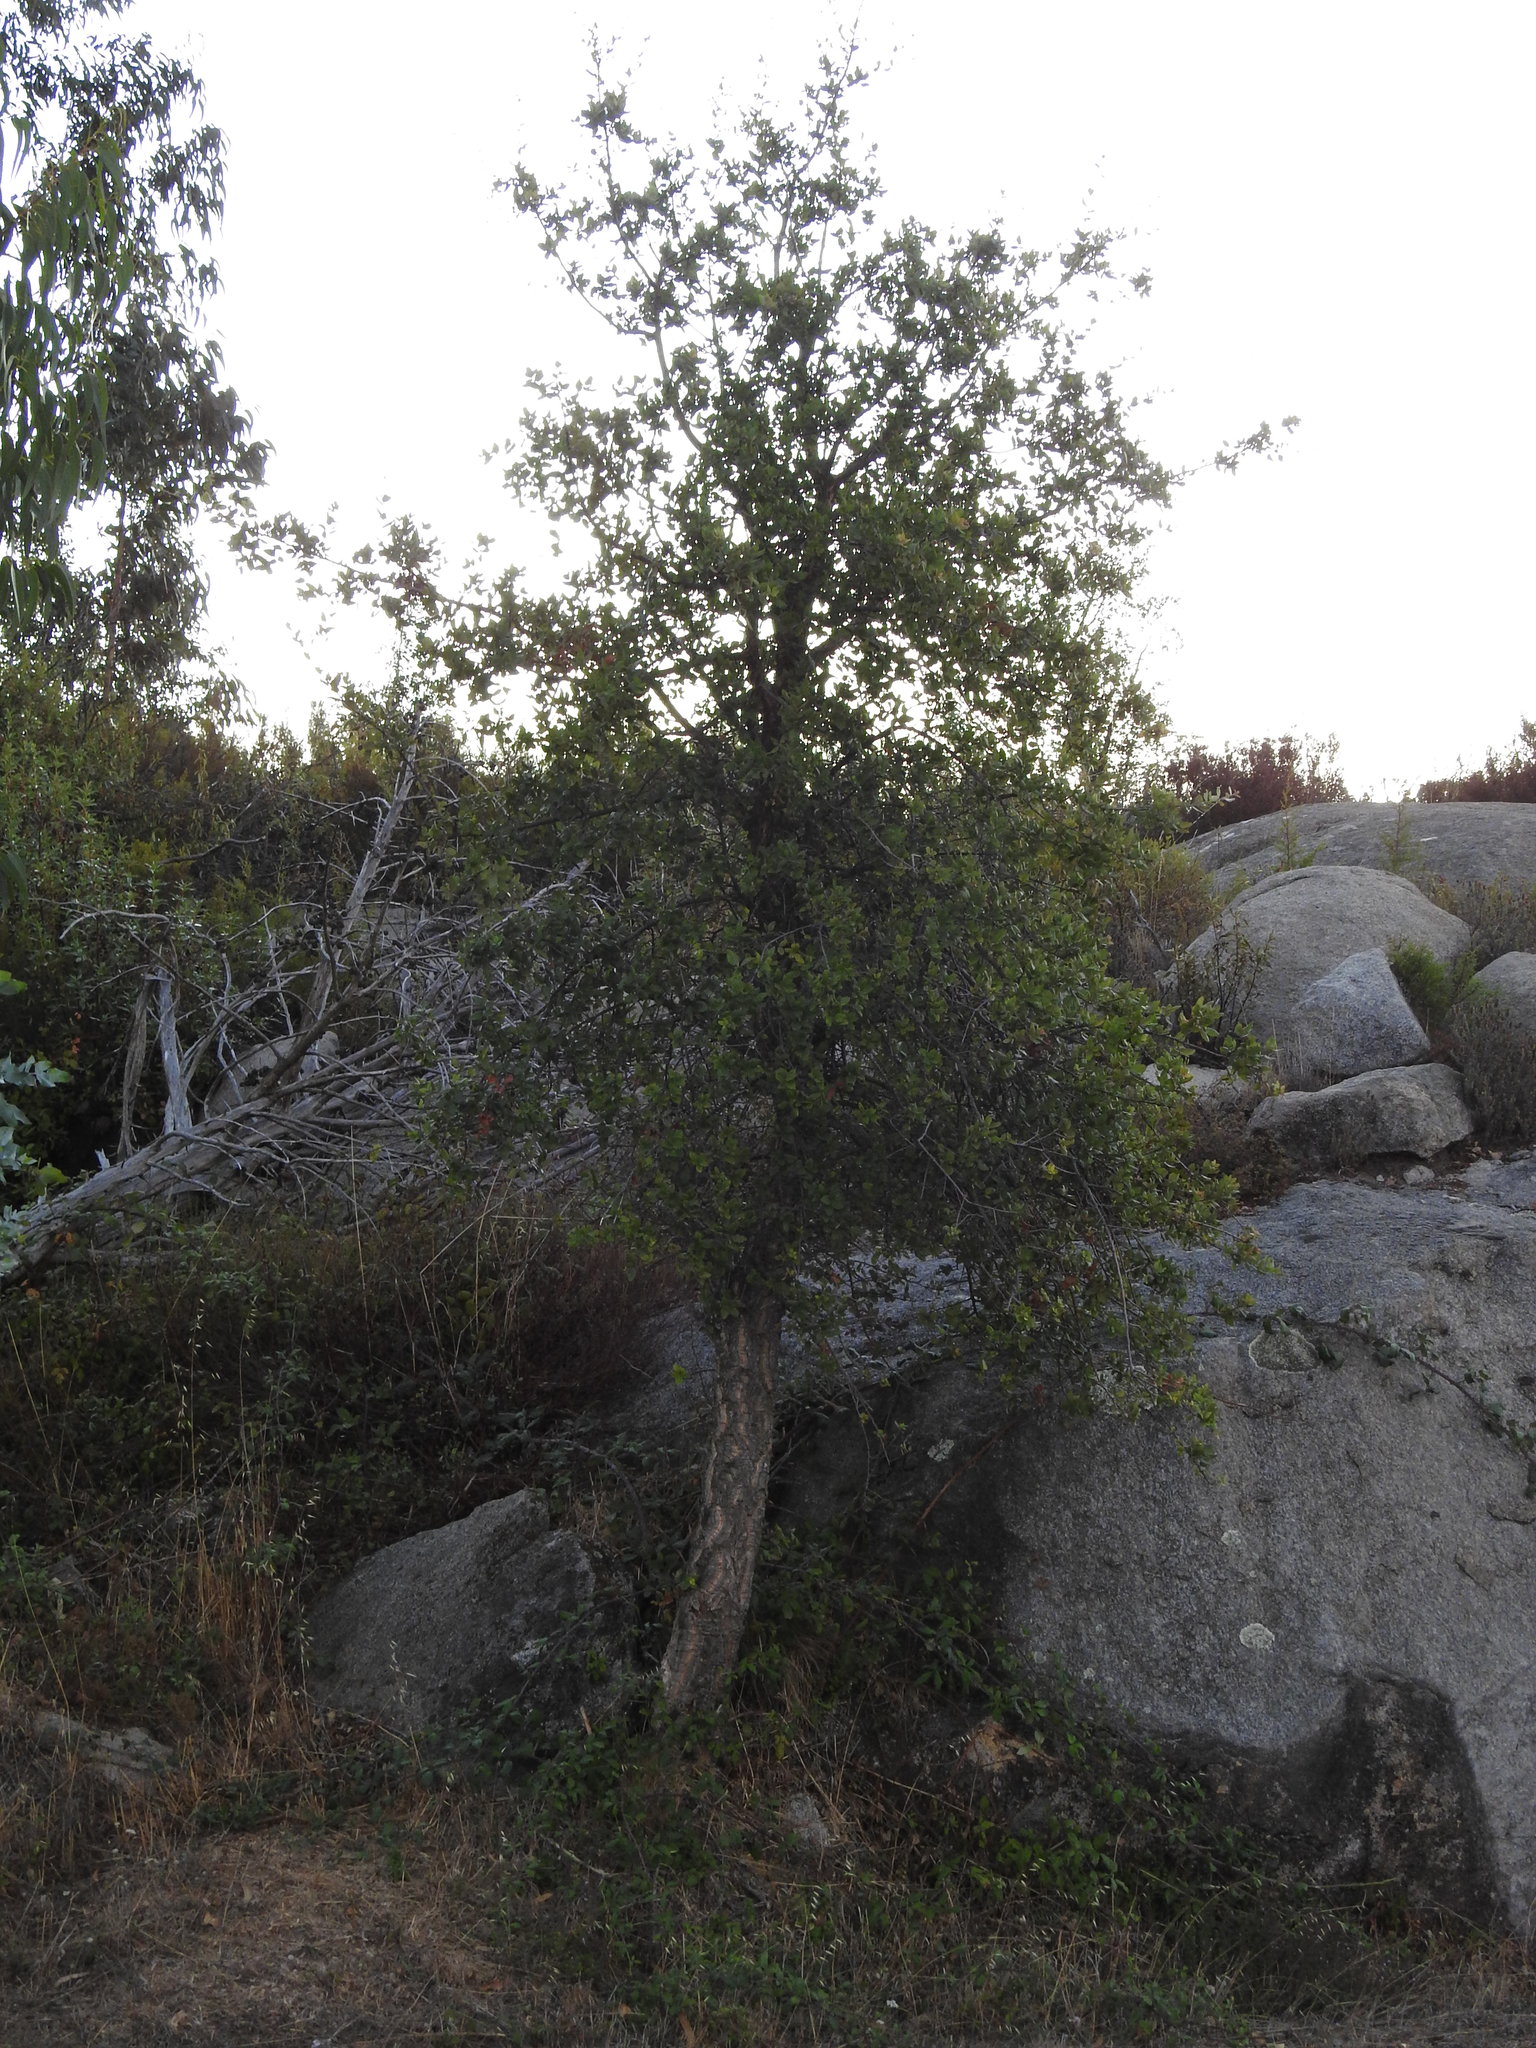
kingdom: Plantae
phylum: Tracheophyta
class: Magnoliopsida
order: Fagales
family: Fagaceae
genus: Quercus
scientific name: Quercus suber
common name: Cork oak
